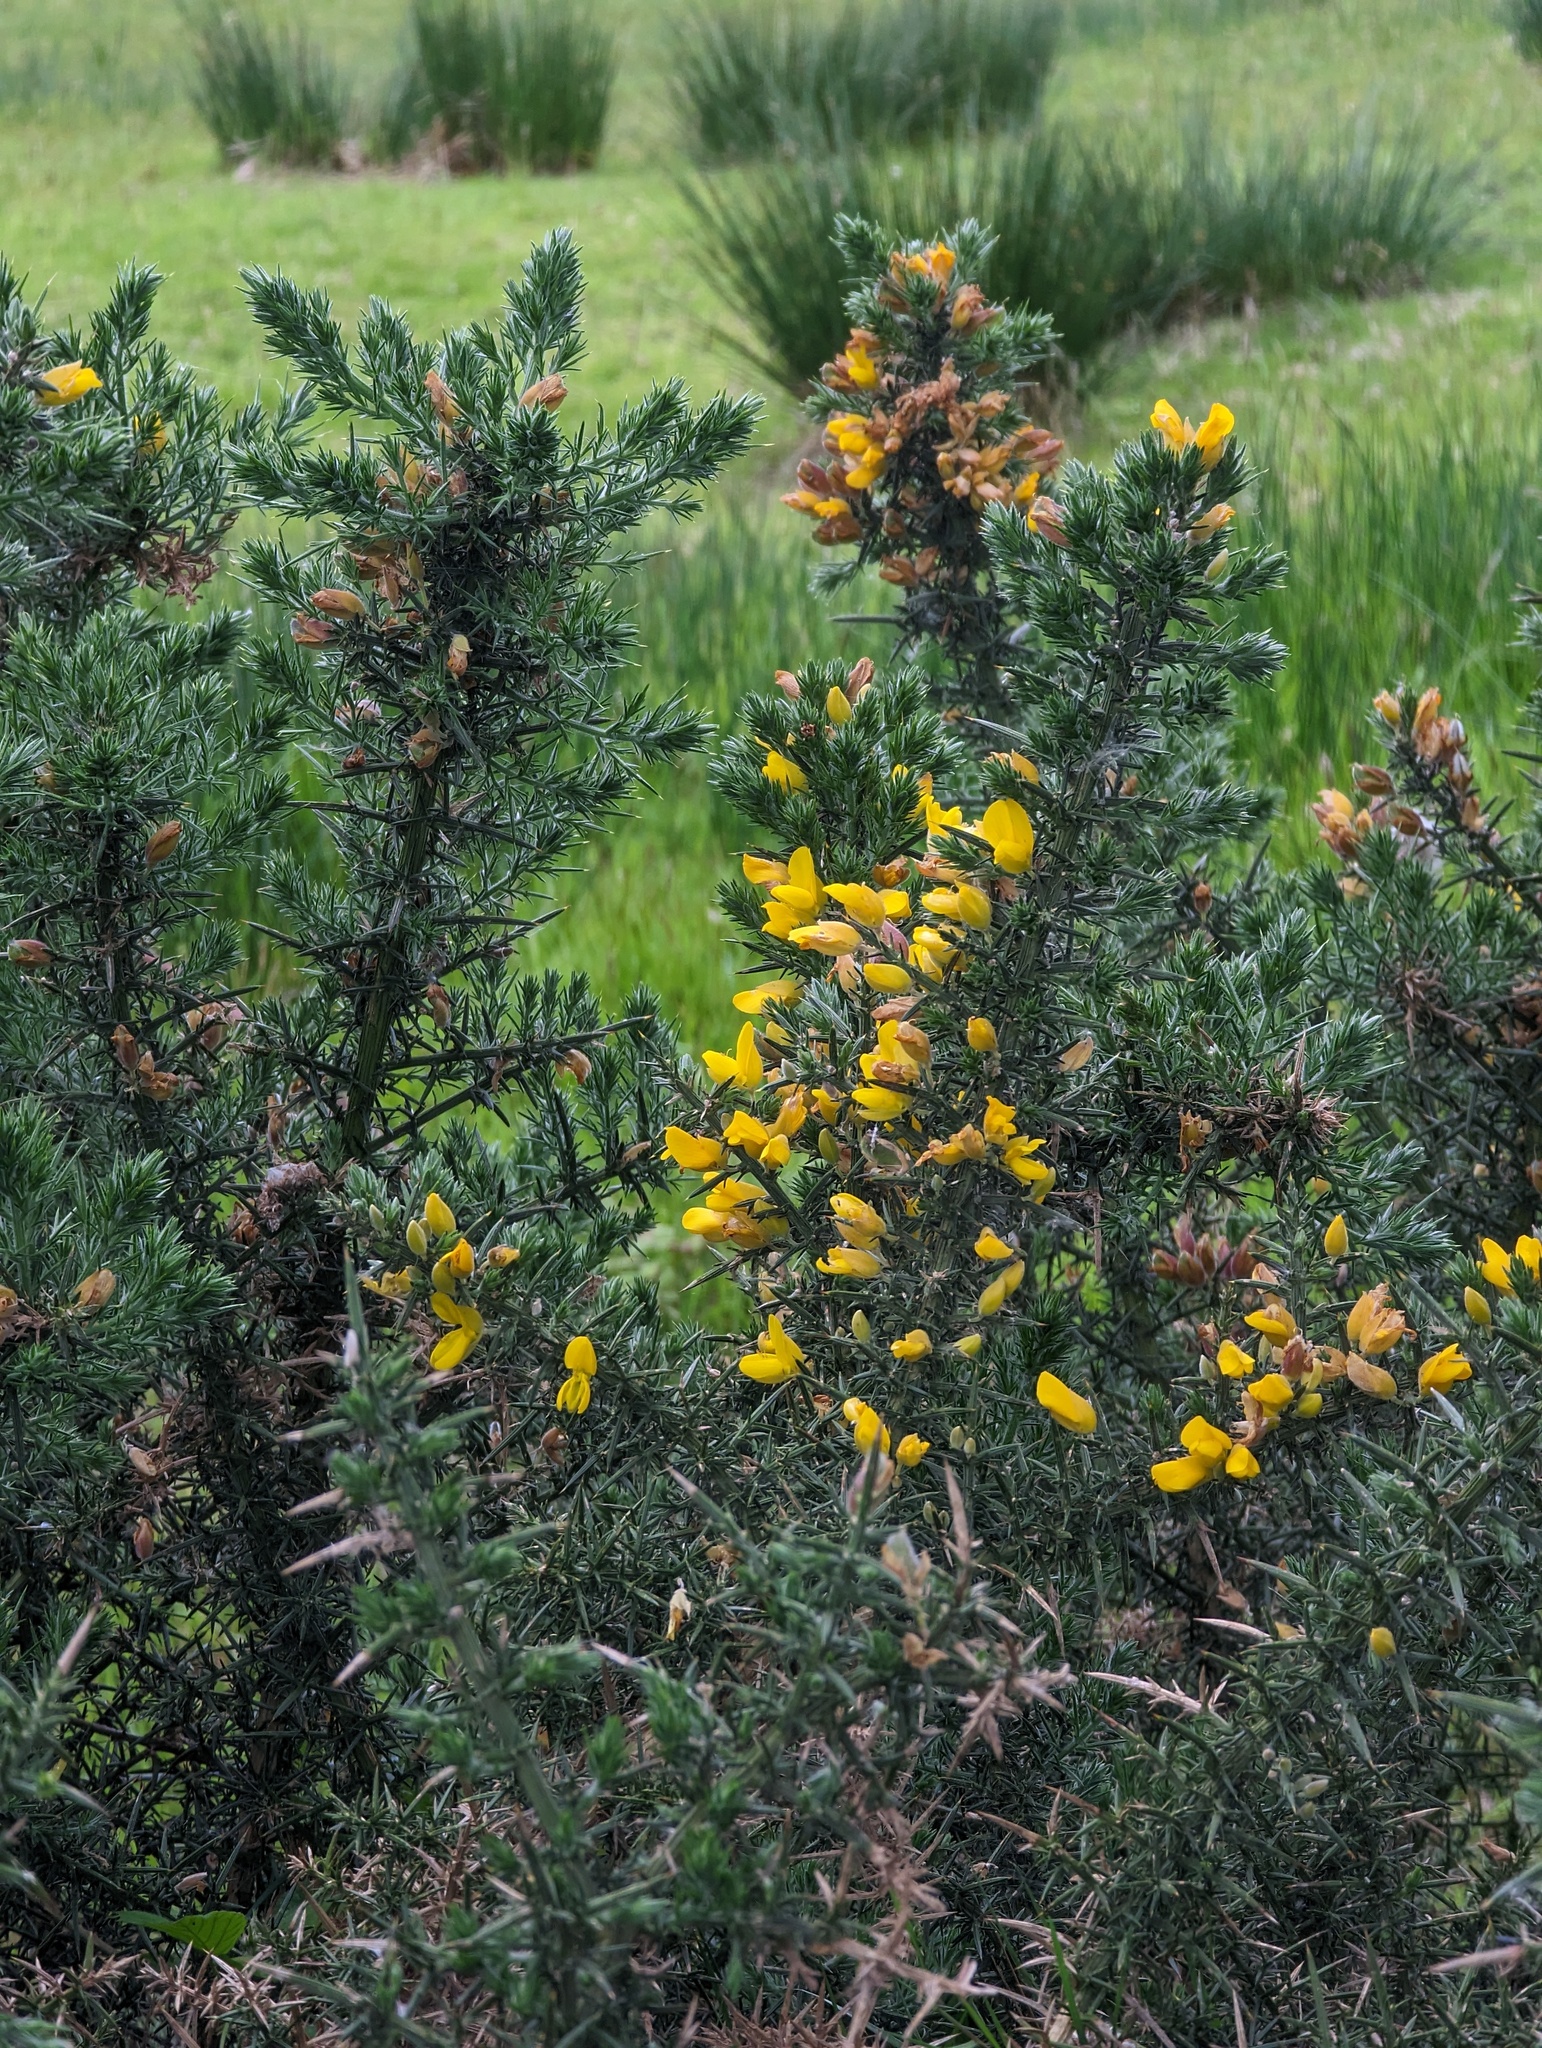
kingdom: Plantae
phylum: Tracheophyta
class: Magnoliopsida
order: Fabales
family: Fabaceae
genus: Ulex
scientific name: Ulex europaeus
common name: Common gorse
